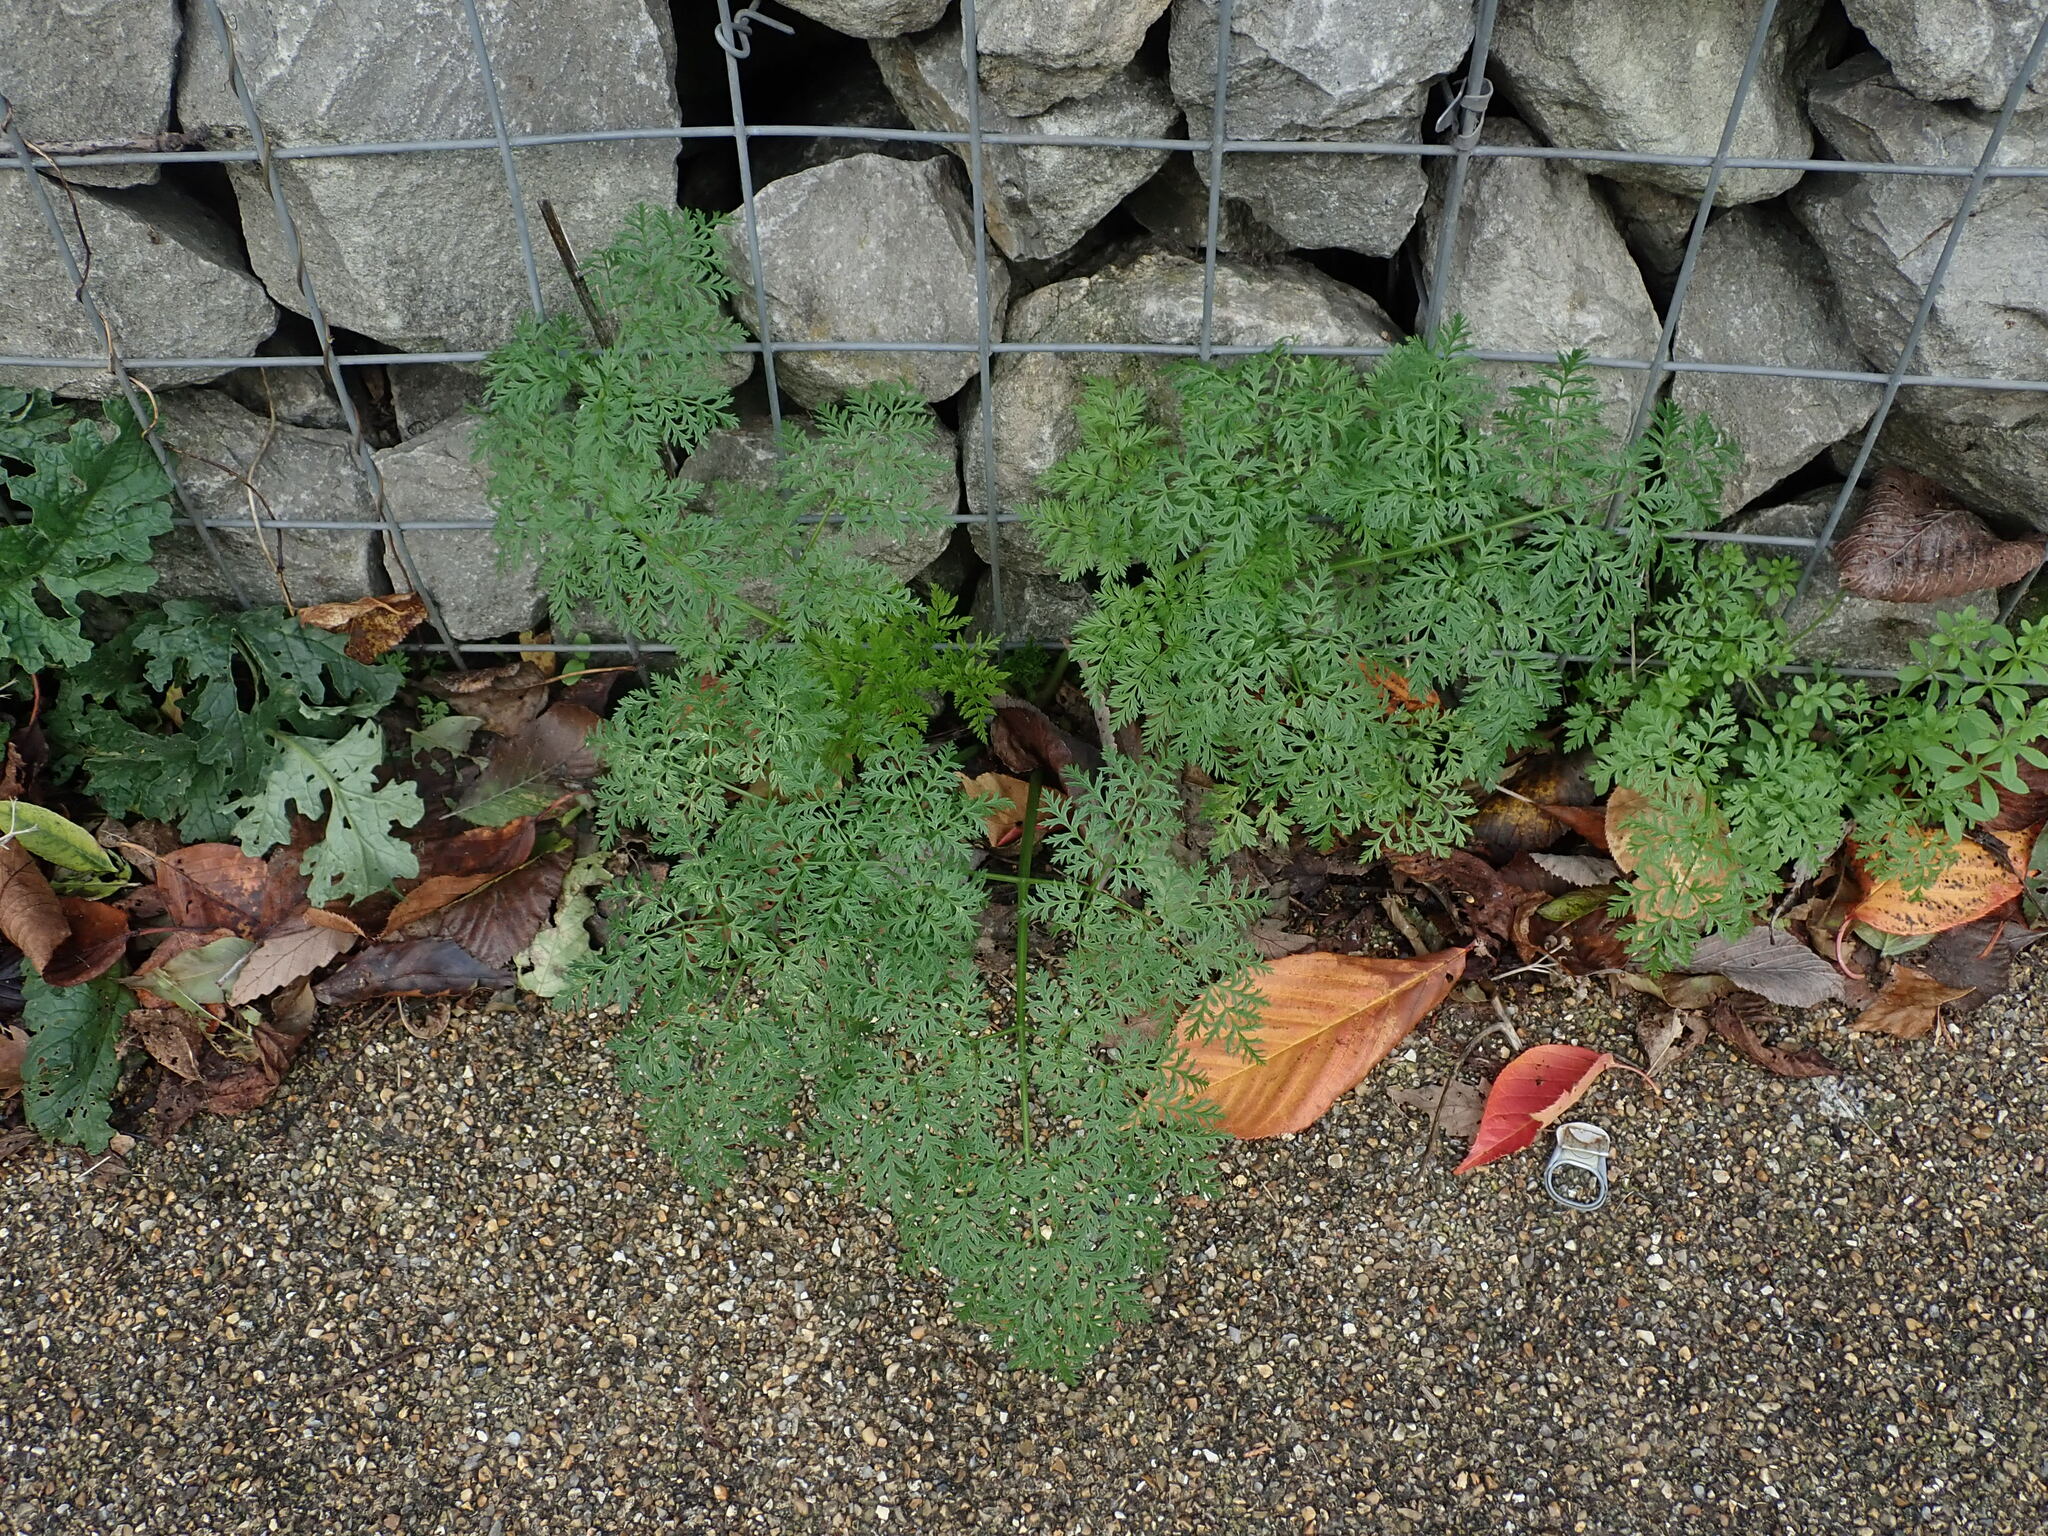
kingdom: Plantae
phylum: Tracheophyta
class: Magnoliopsida
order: Apiales
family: Apiaceae
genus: Conium
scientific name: Conium maculatum
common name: Hemlock
